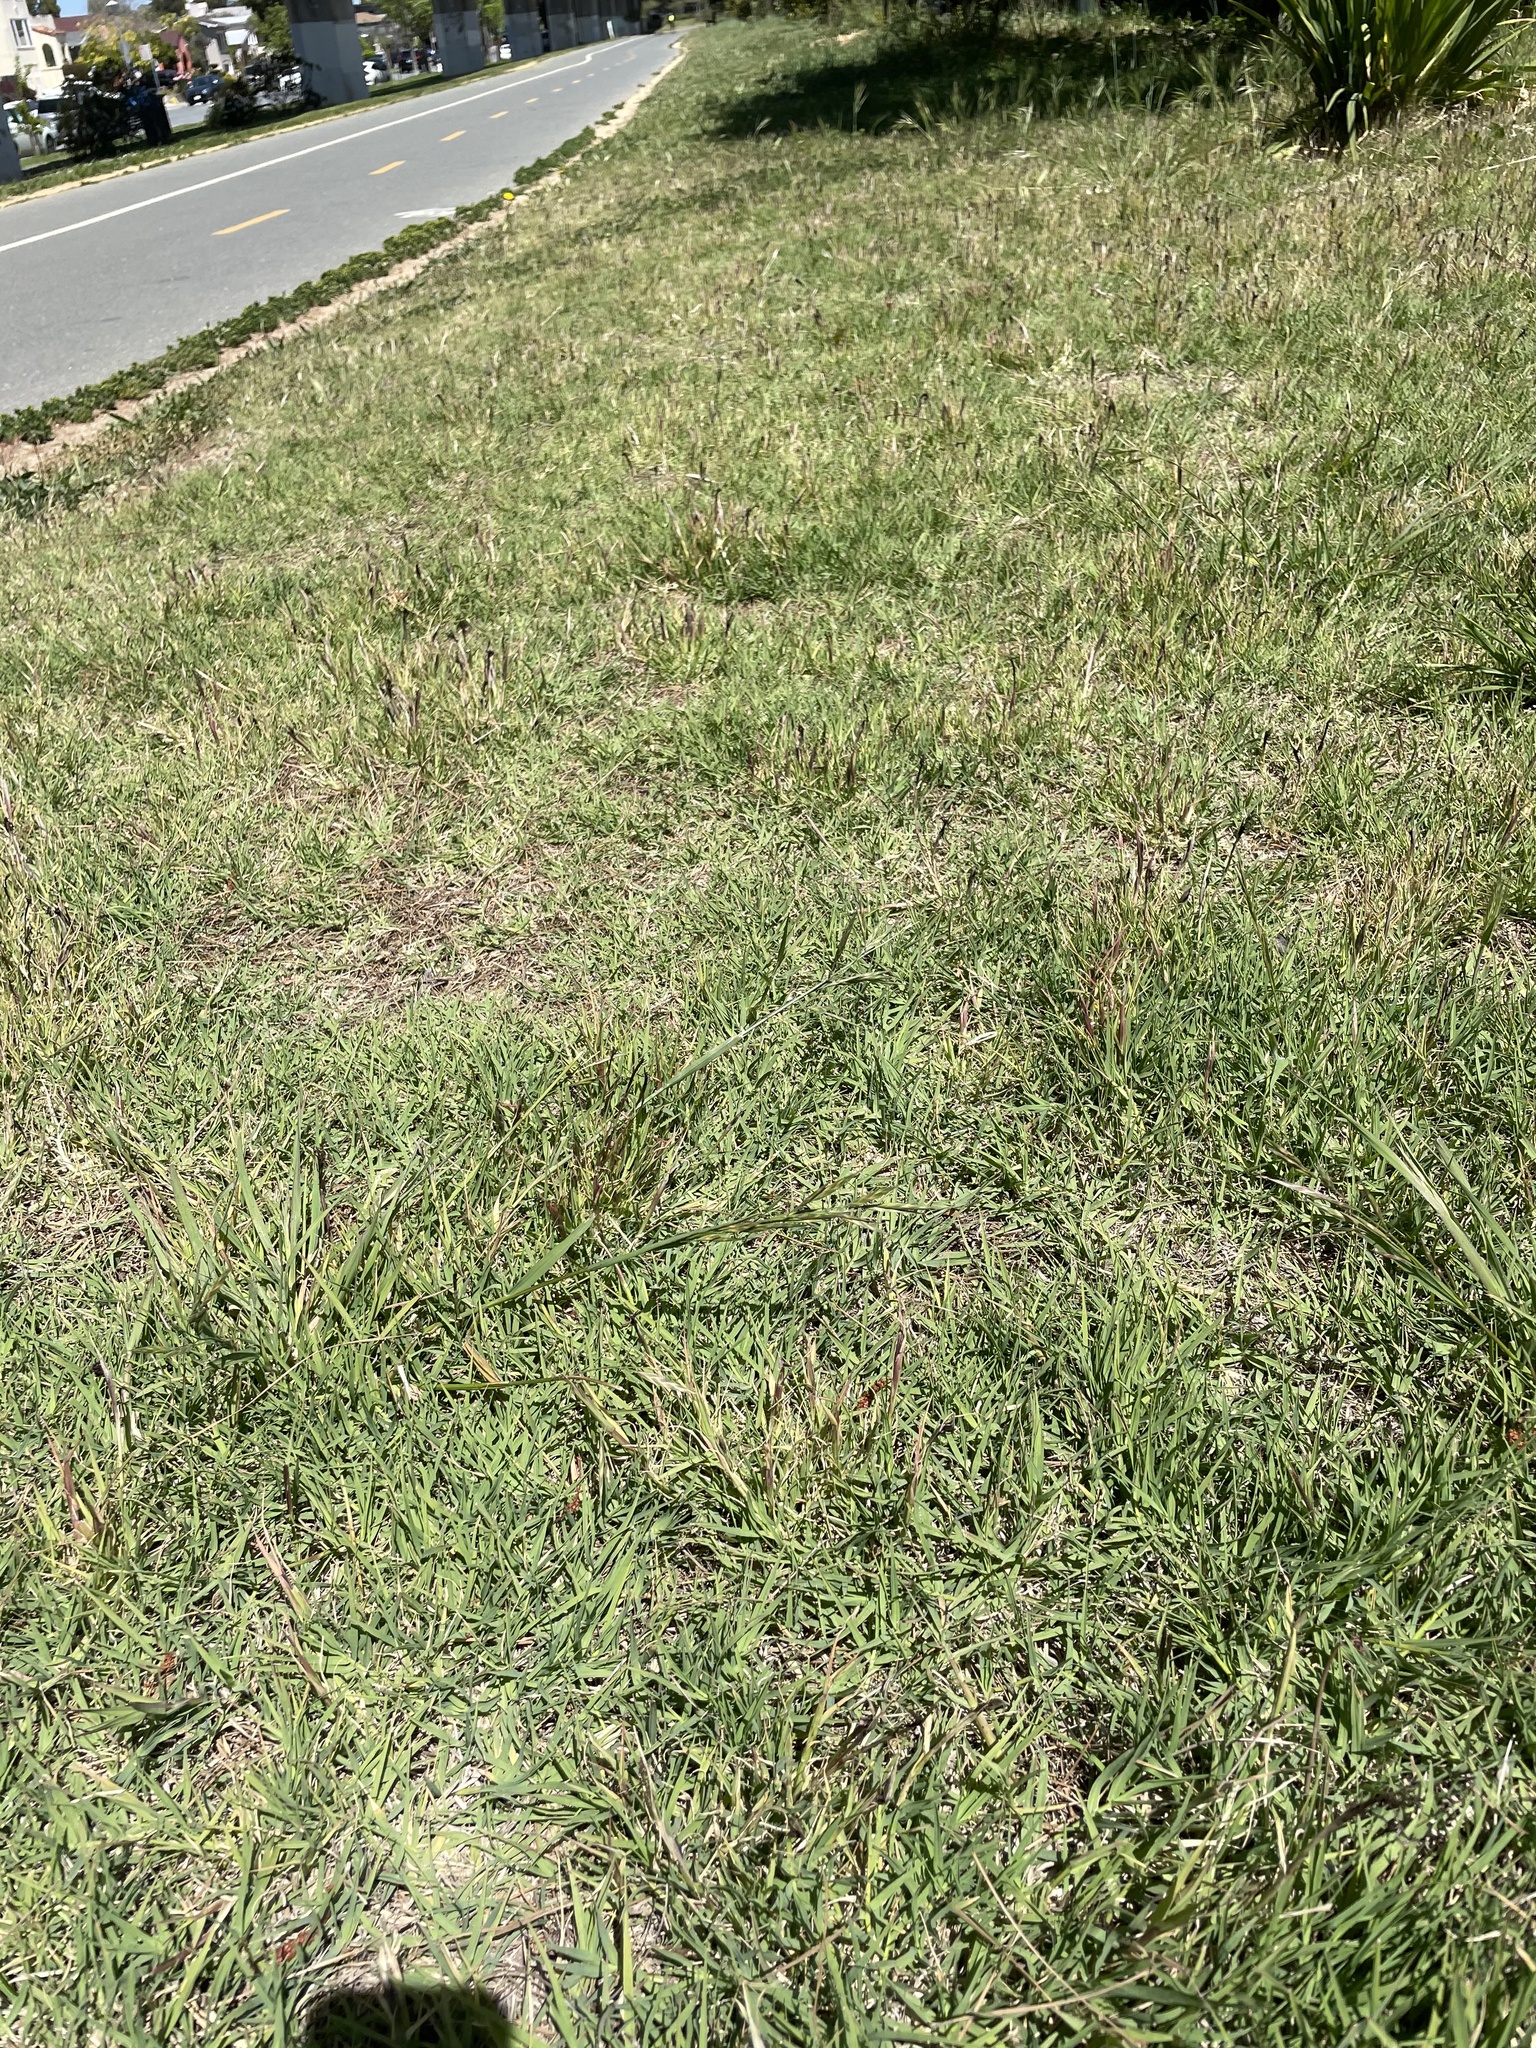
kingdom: Fungi
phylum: Basidiomycota
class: Ustilaginomycetes
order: Ustilaginales
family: Ustilaginaceae
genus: Ustilago
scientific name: Ustilago cynodontis
